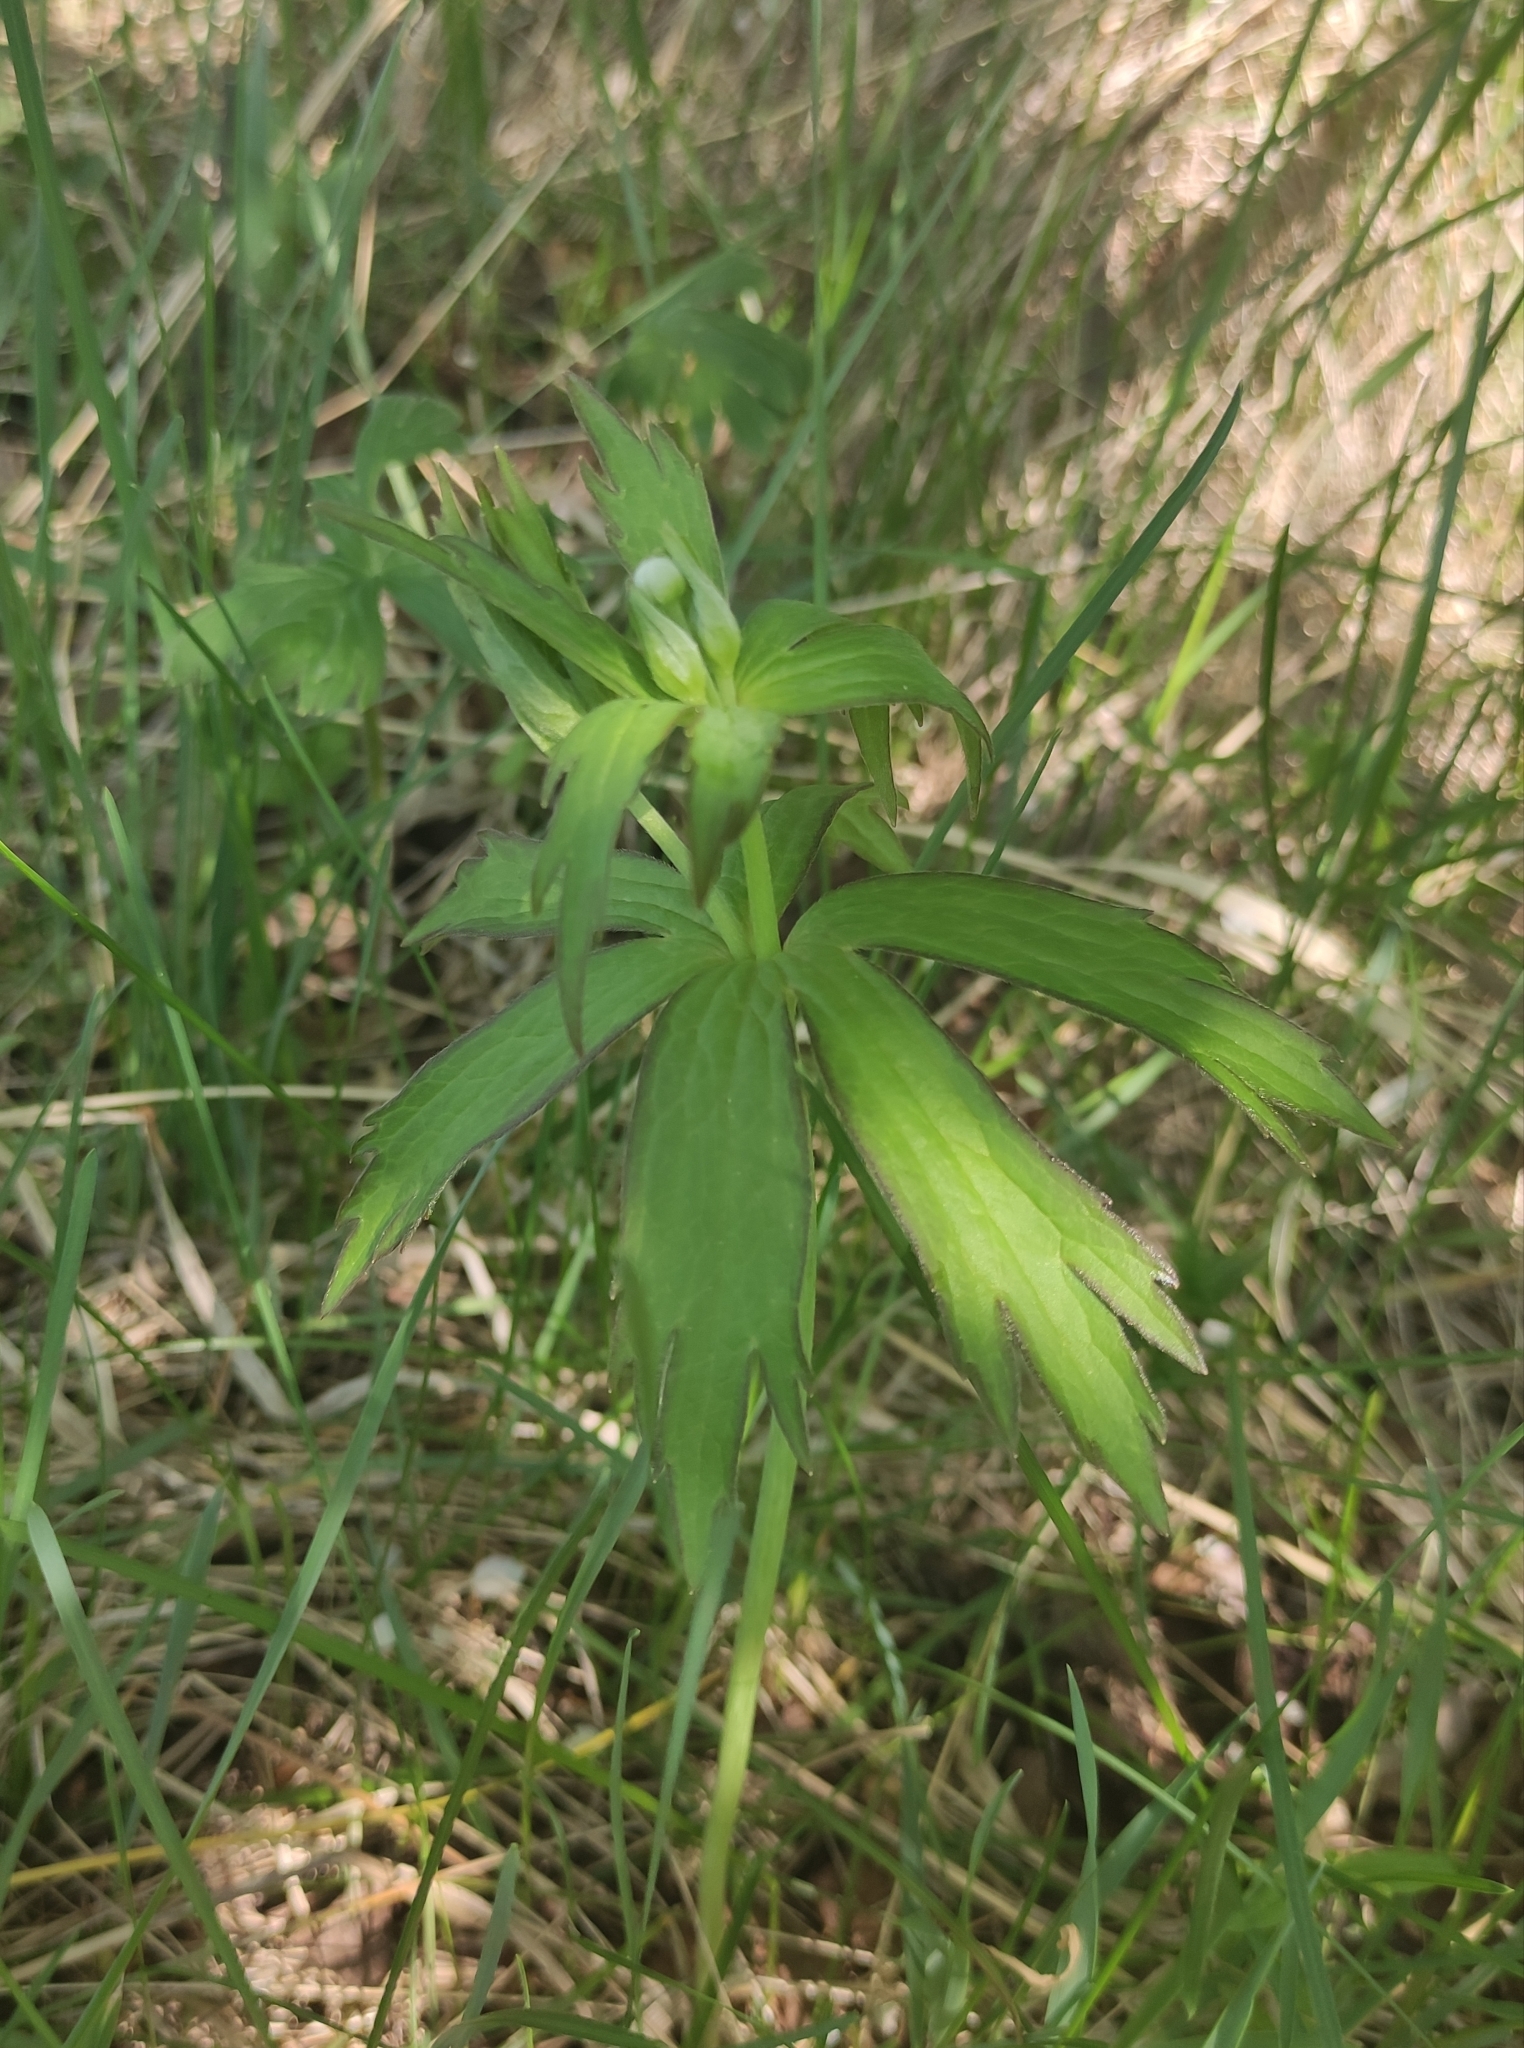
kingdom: Plantae
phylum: Tracheophyta
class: Magnoliopsida
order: Ranunculales
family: Ranunculaceae
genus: Anemonastrum
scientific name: Anemonastrum dichotomum
